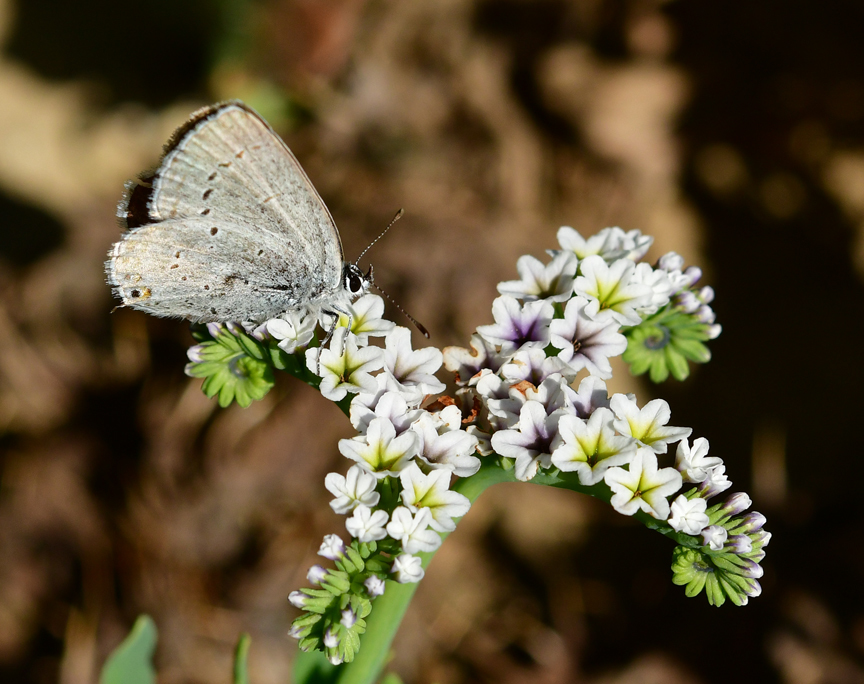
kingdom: Animalia
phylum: Arthropoda
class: Insecta
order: Lepidoptera
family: Lycaenidae
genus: Elkalyce
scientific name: Elkalyce amyntula
